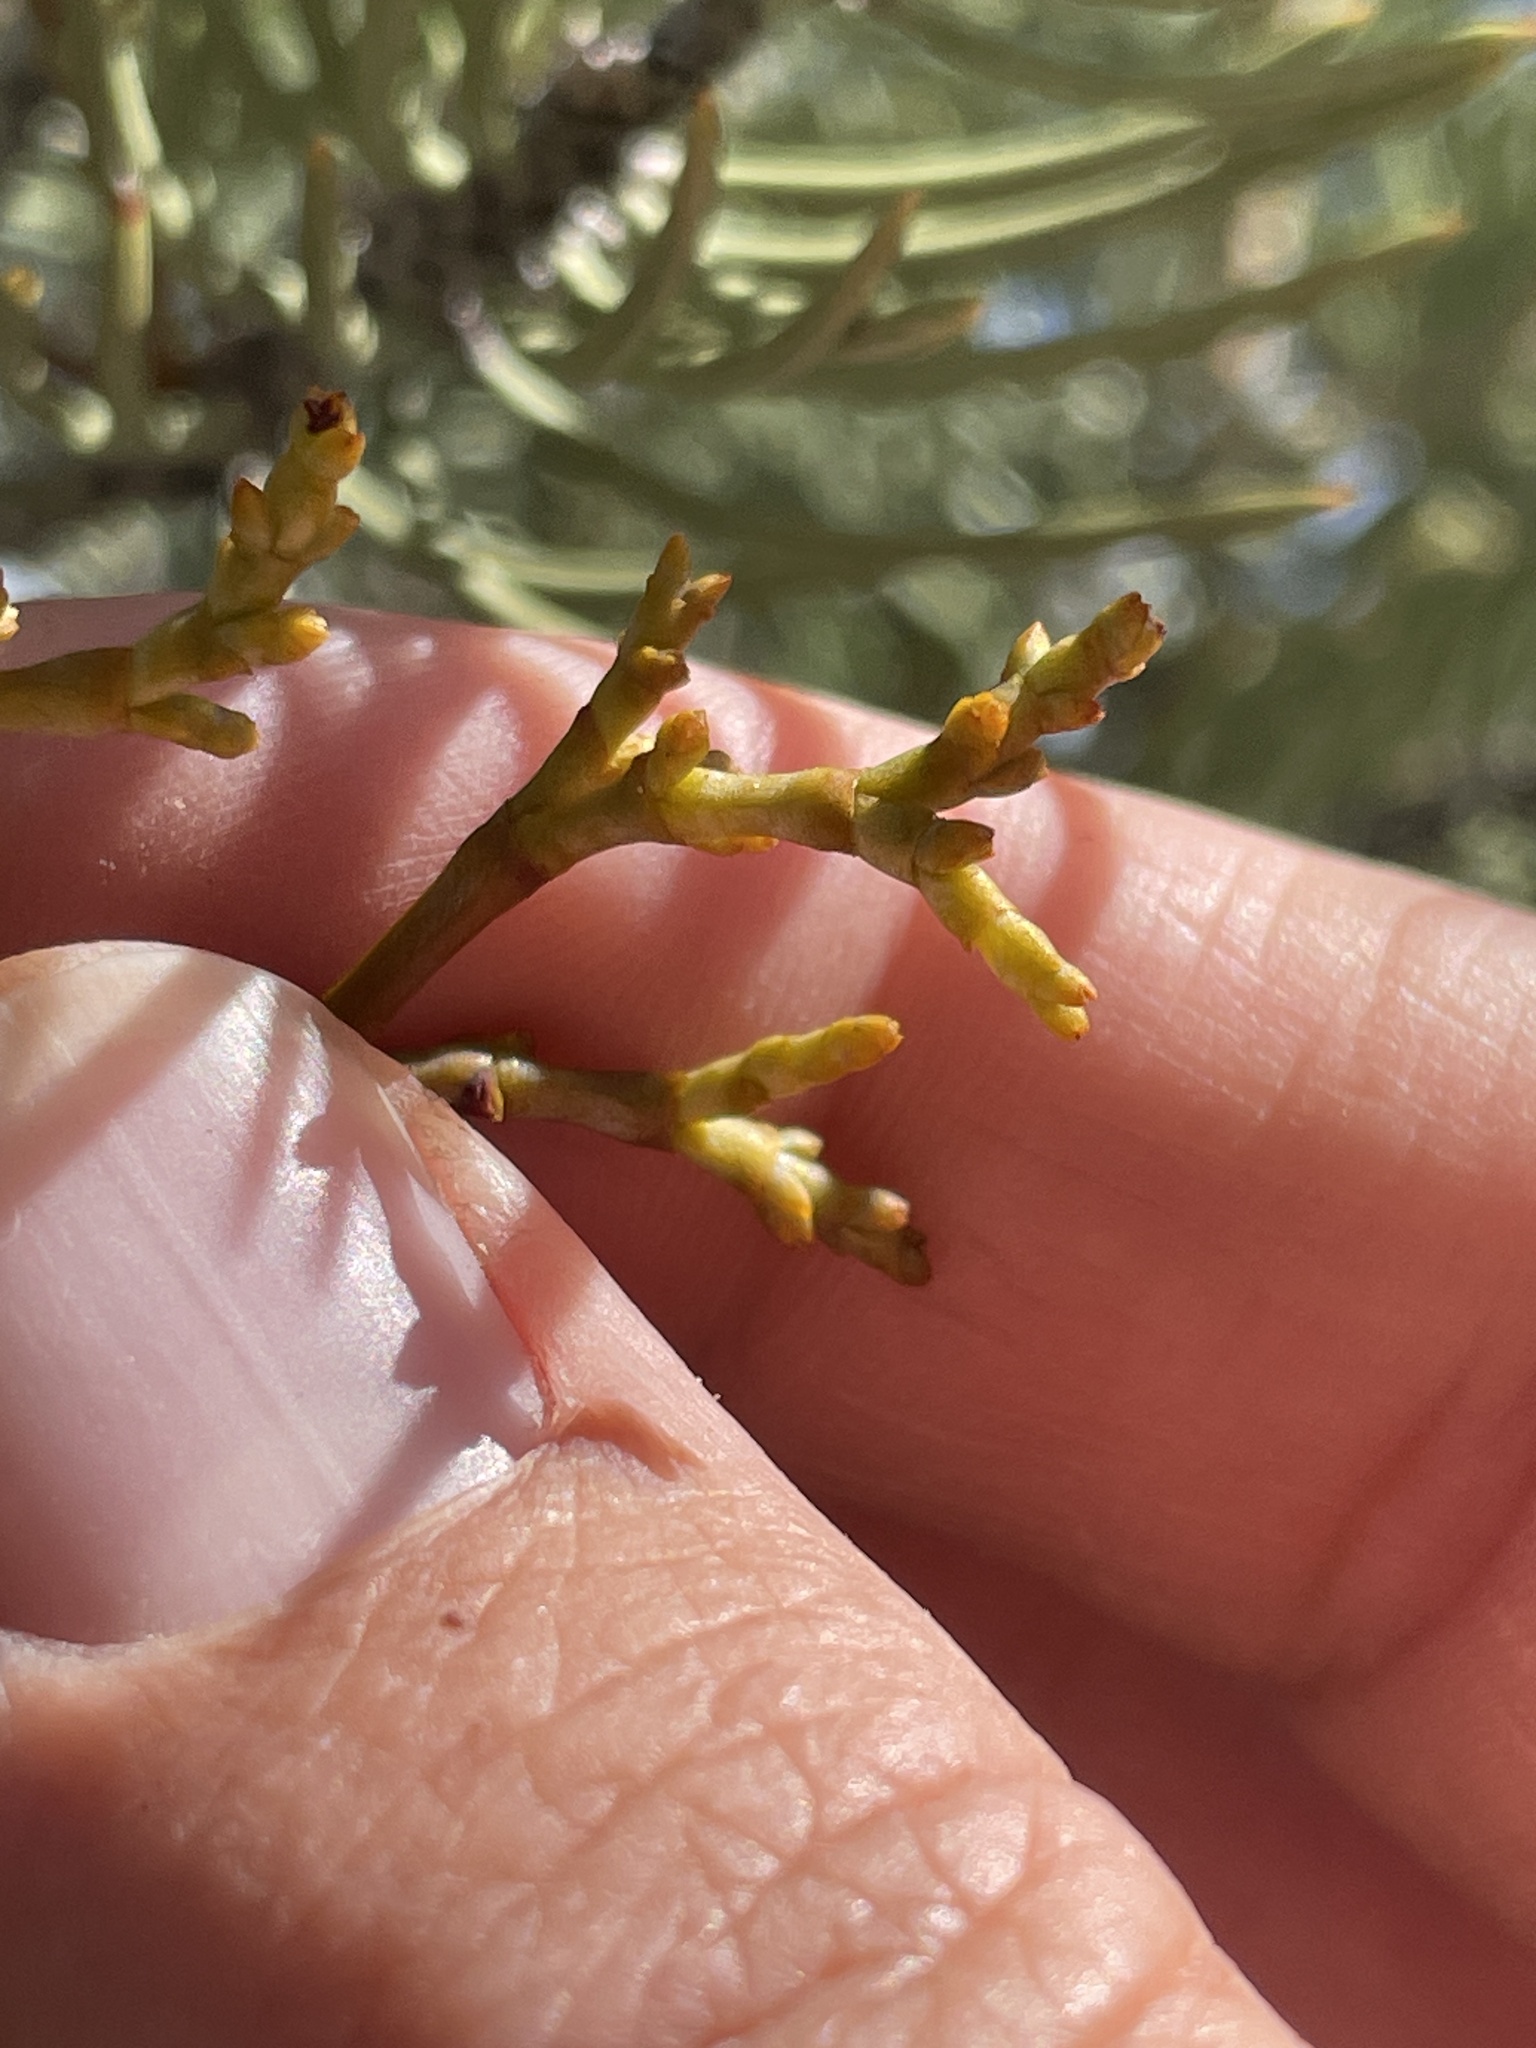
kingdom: Plantae
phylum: Tracheophyta
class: Magnoliopsida
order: Santalales
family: Viscaceae
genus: Arceuthobium
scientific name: Arceuthobium divaricatum
